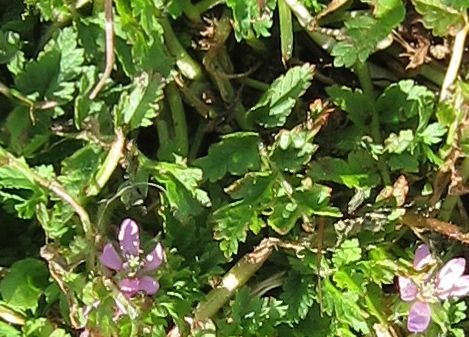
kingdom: Plantae
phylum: Tracheophyta
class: Magnoliopsida
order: Geraniales
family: Geraniaceae
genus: Erodium
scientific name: Erodium moschatum
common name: Musk stork's-bill
